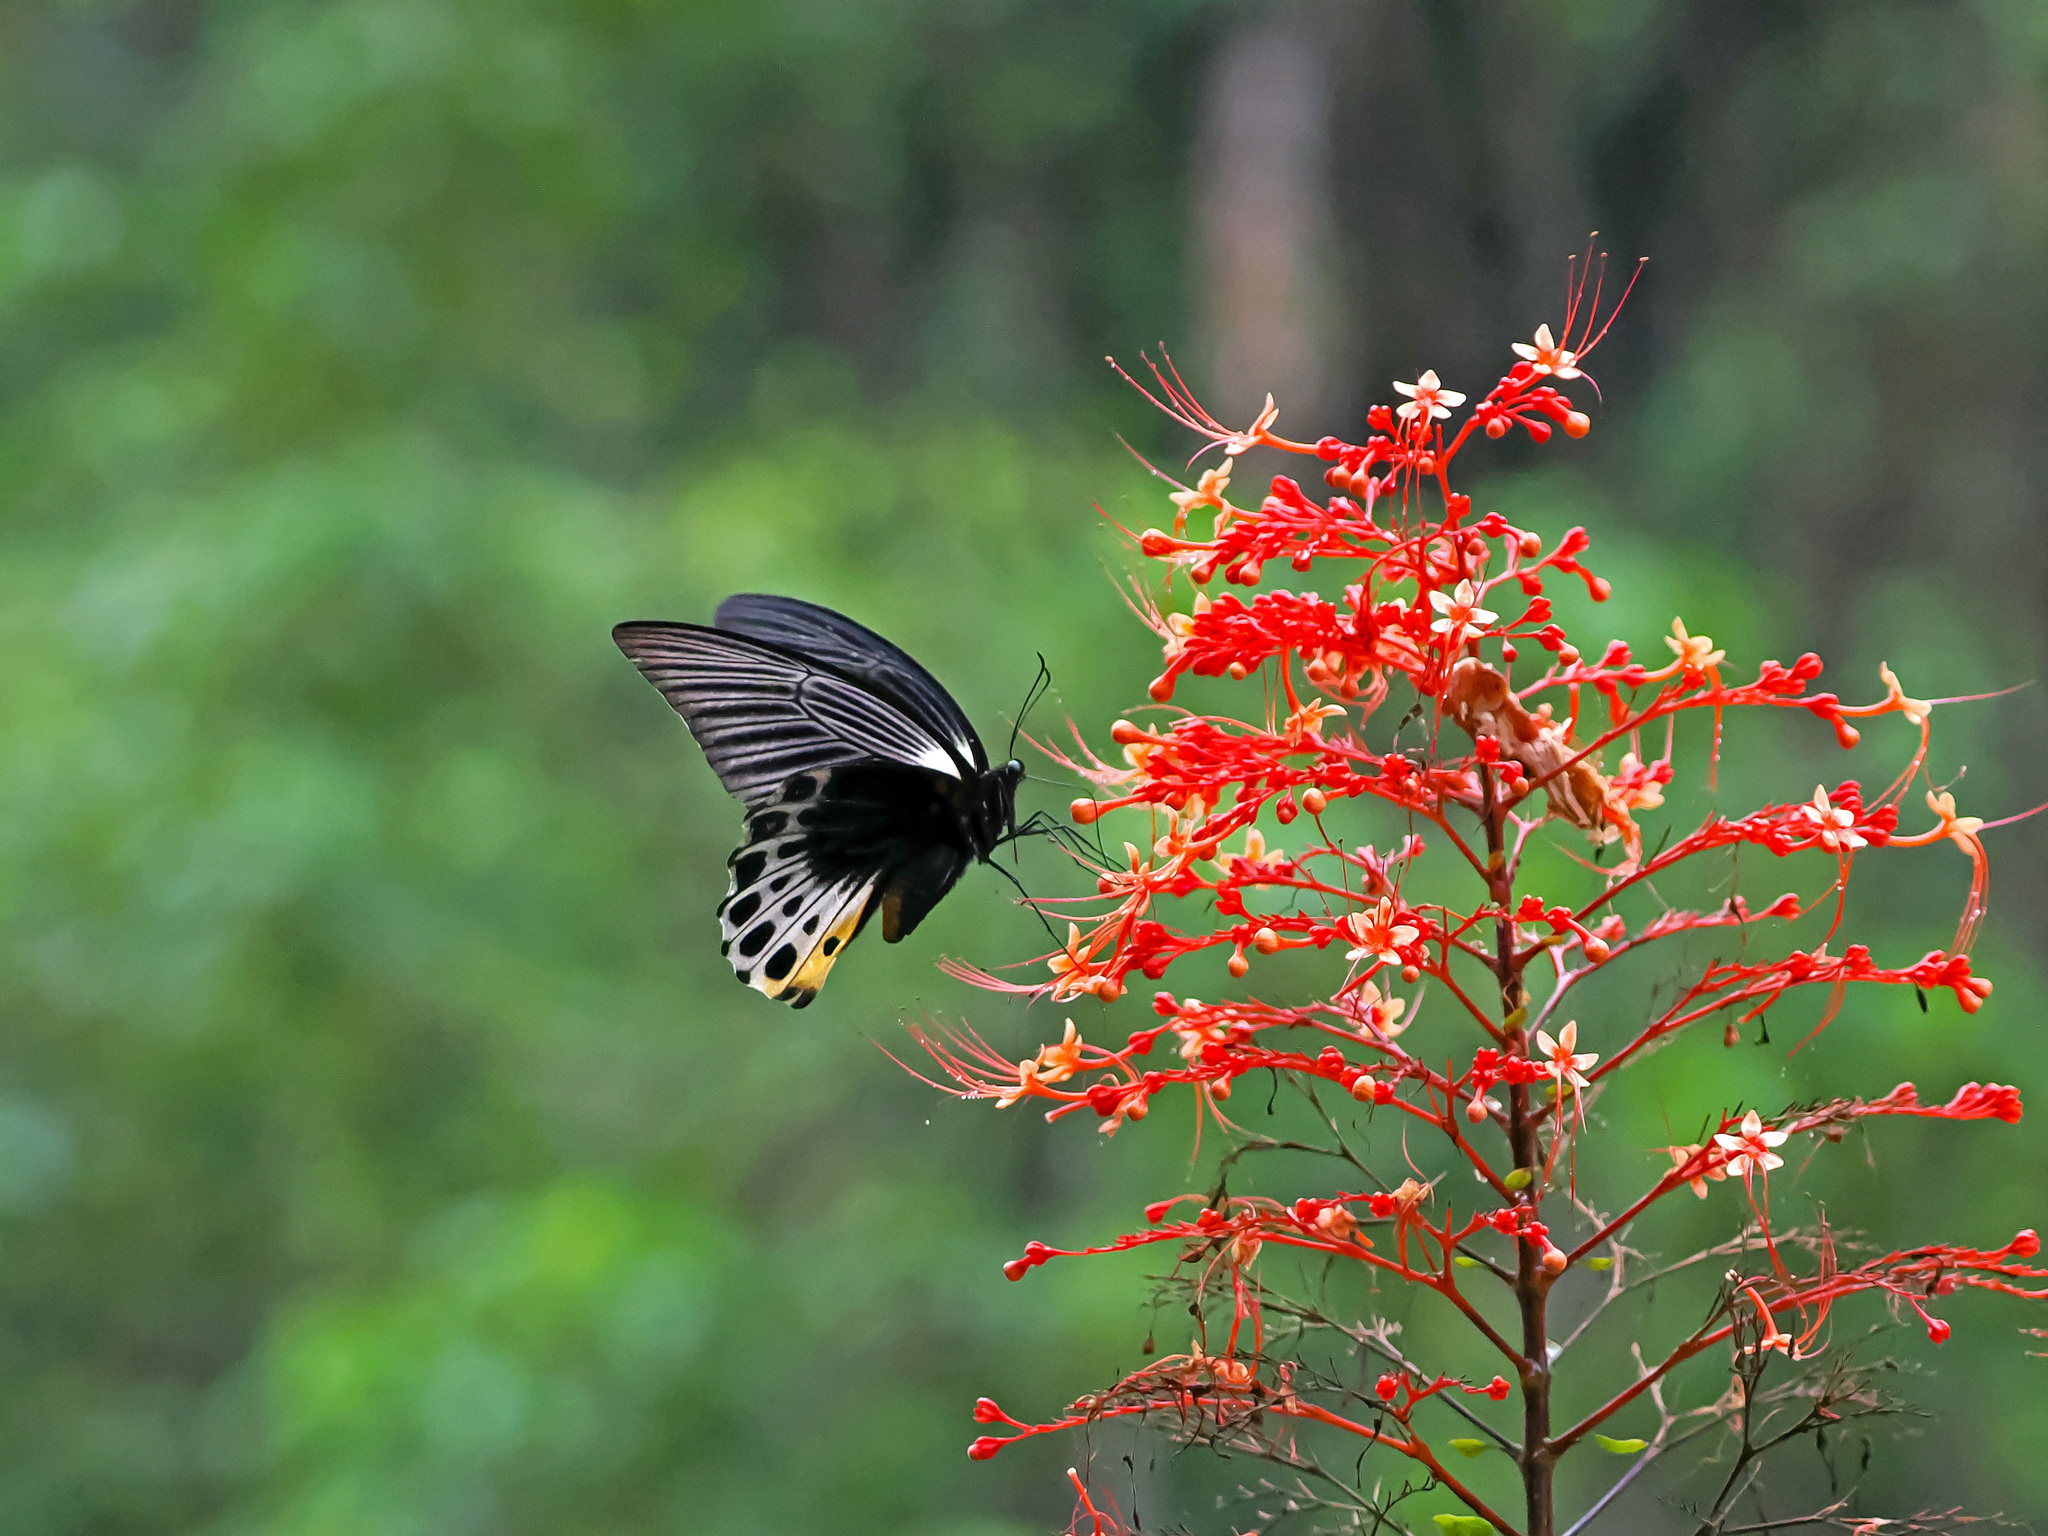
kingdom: Animalia
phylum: Arthropoda
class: Insecta
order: Lepidoptera
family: Papilionidae
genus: Papilio
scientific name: Papilio memnon
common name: Great mormon
